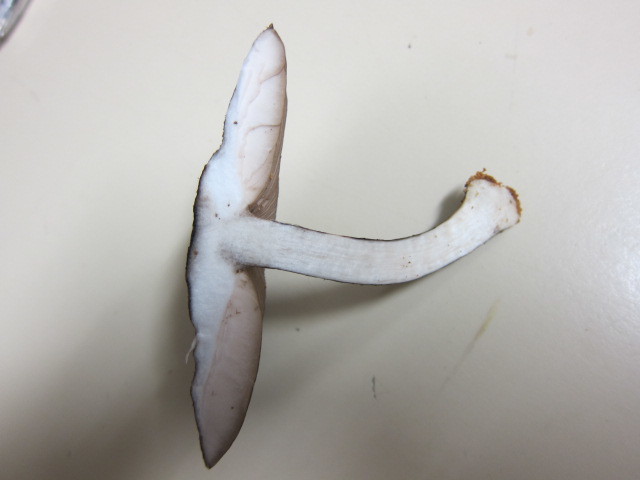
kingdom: Fungi
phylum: Basidiomycota
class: Agaricomycetes
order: Agaricales
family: Pluteaceae
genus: Pluteus
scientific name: Pluteus concentricus
